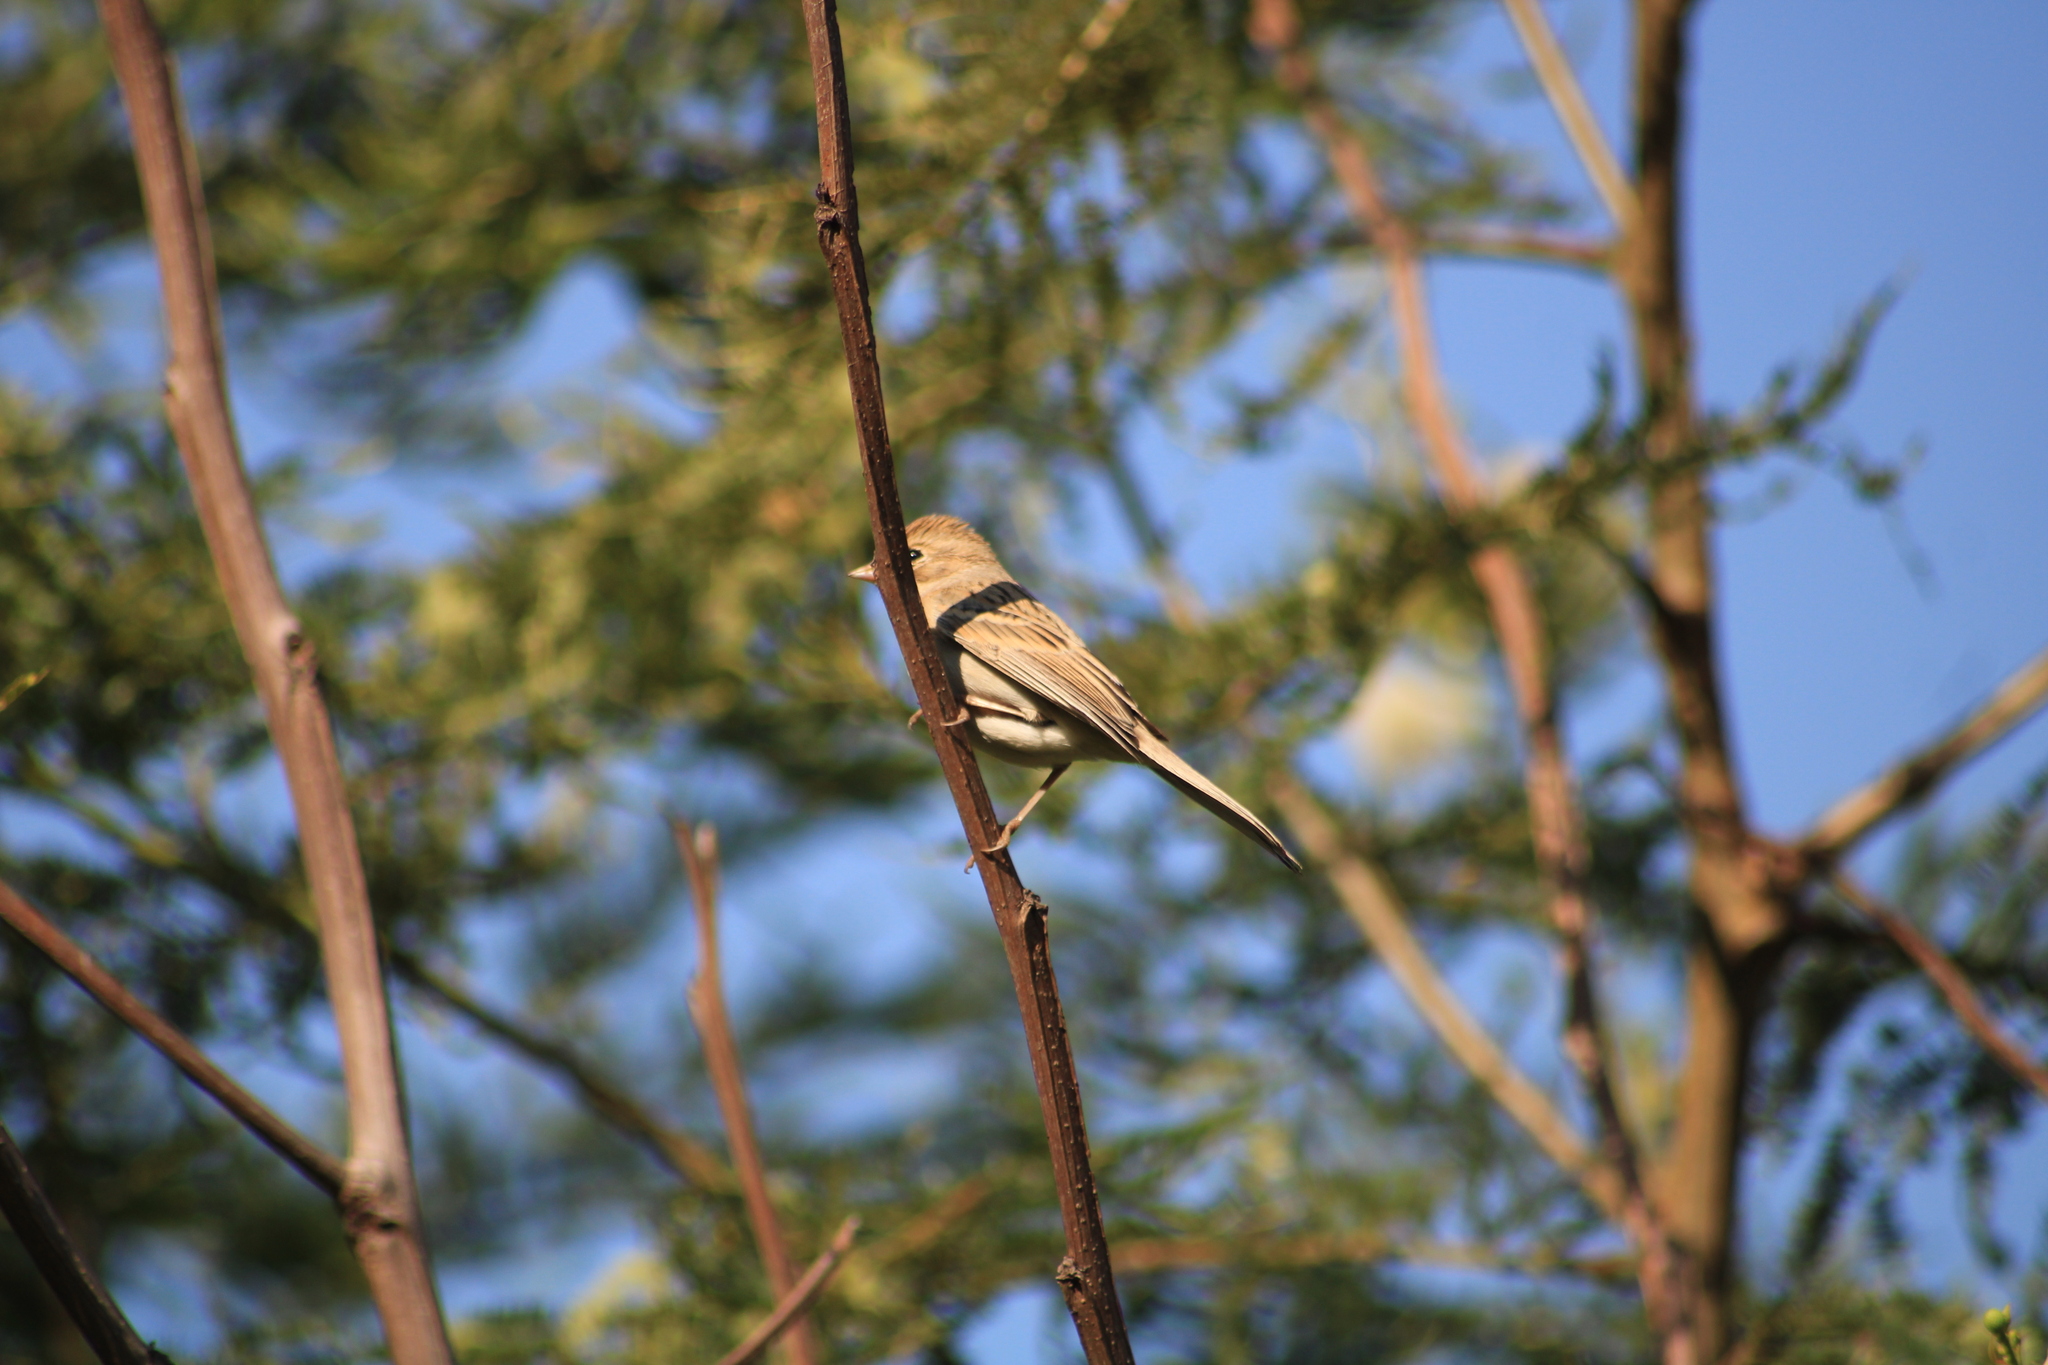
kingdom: Animalia
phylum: Chordata
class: Aves
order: Passeriformes
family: Passerellidae
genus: Spizella
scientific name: Spizella breweri
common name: Brewer's sparrow
